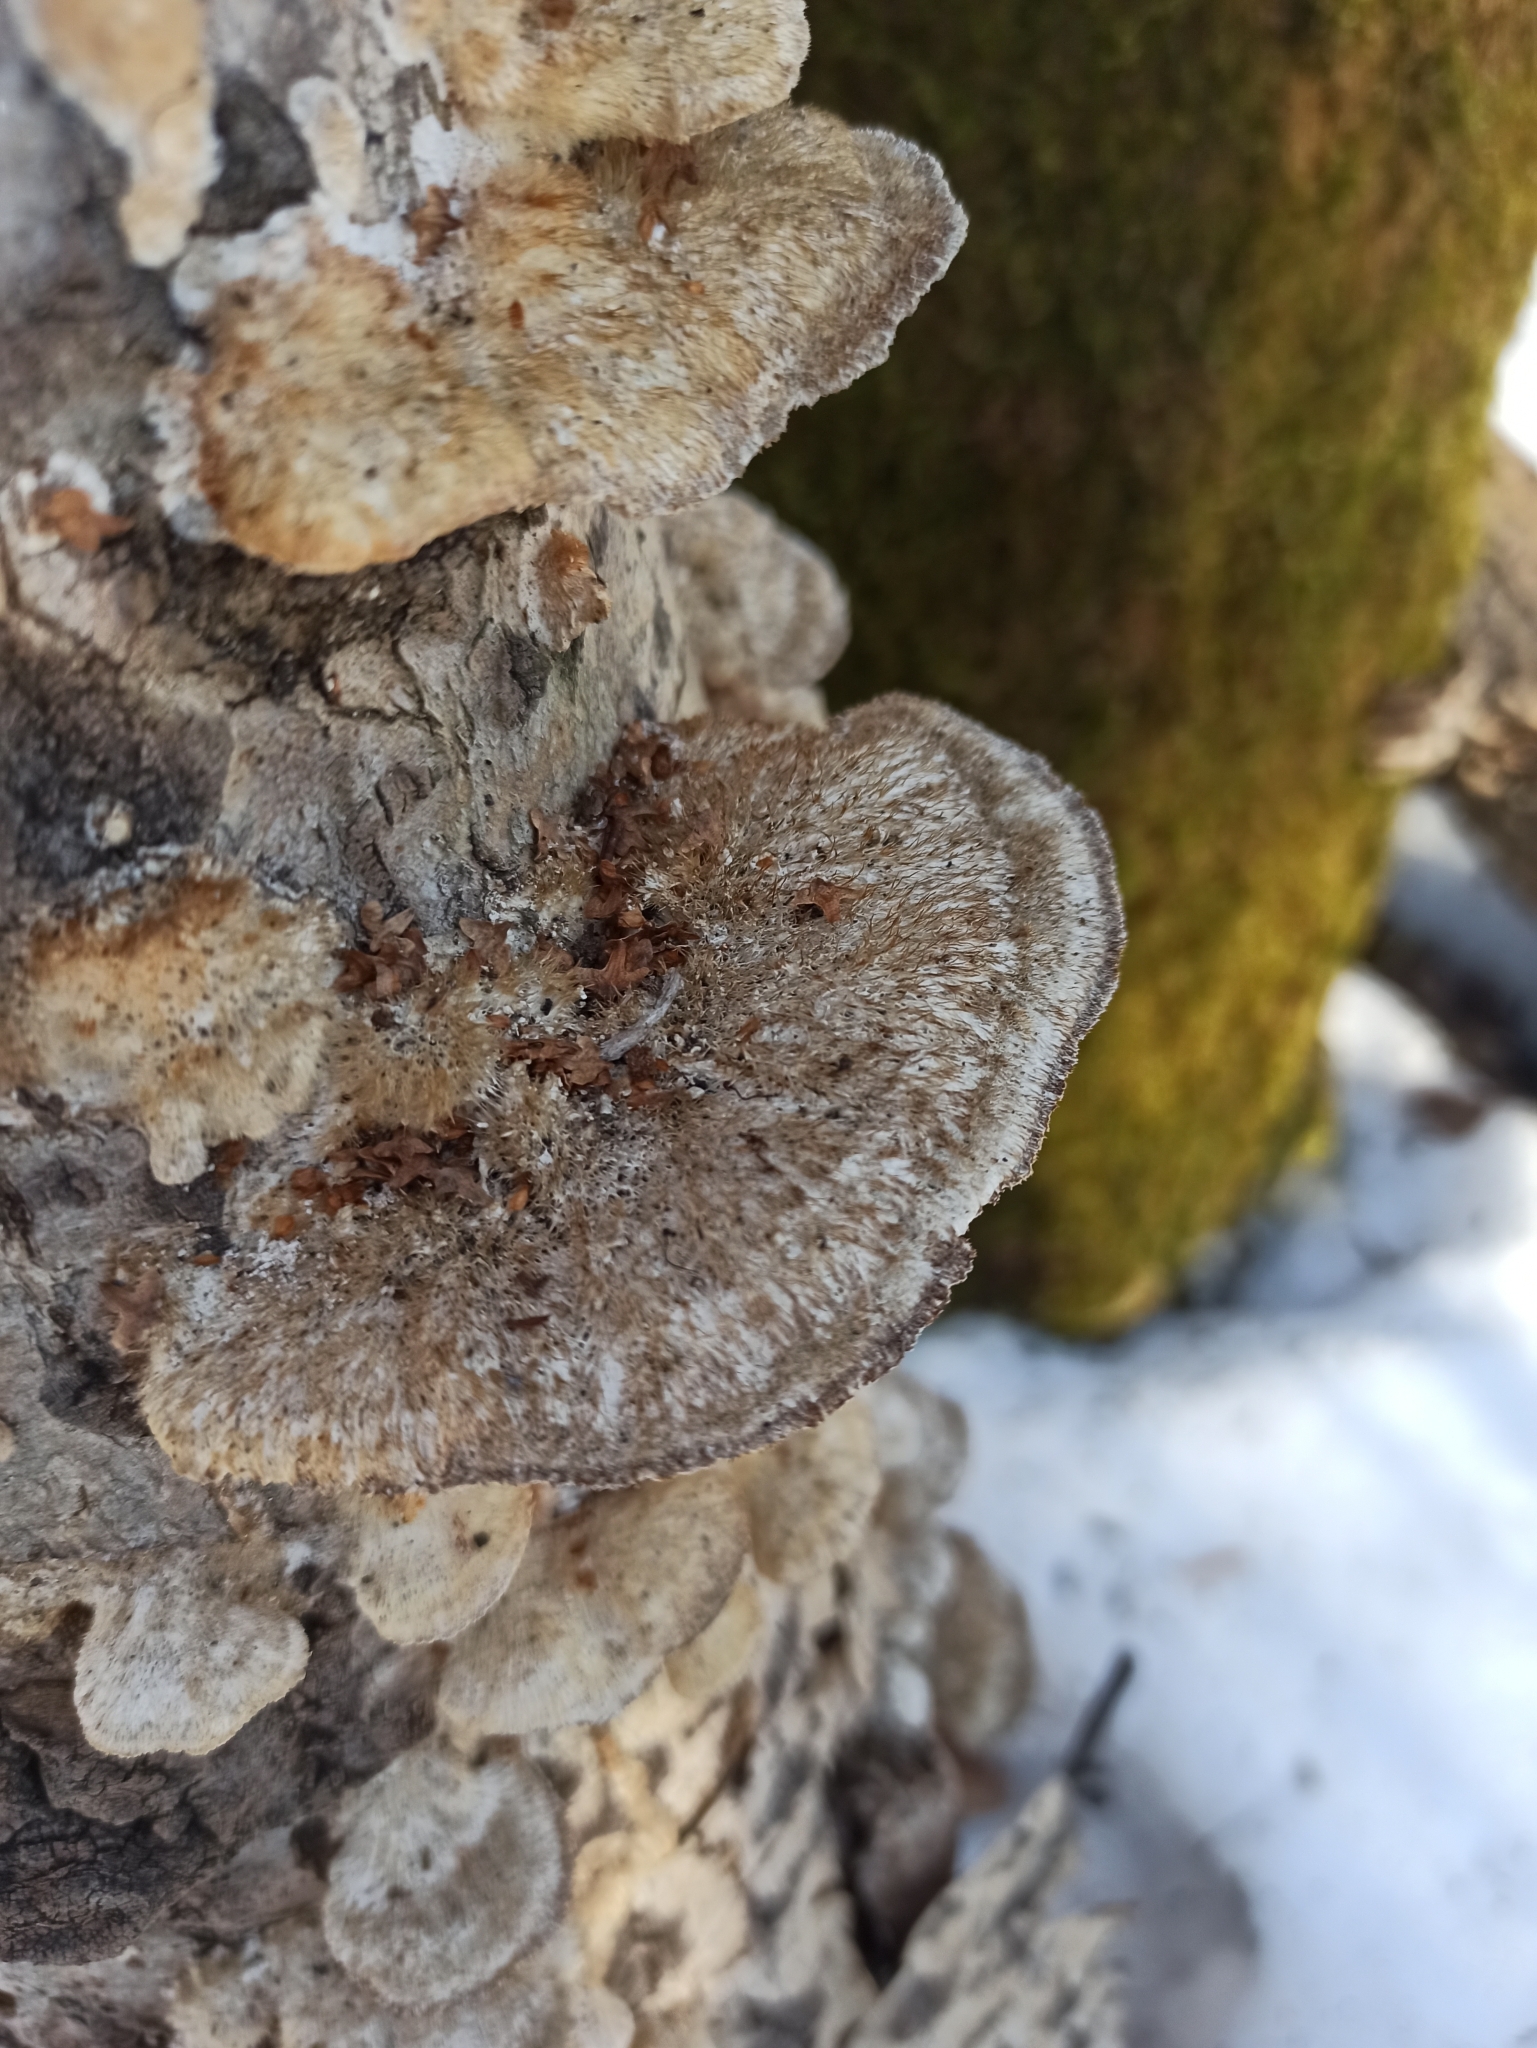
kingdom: Fungi
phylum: Basidiomycota
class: Agaricomycetes
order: Polyporales
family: Polyporaceae
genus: Trametes
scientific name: Trametes trogii
